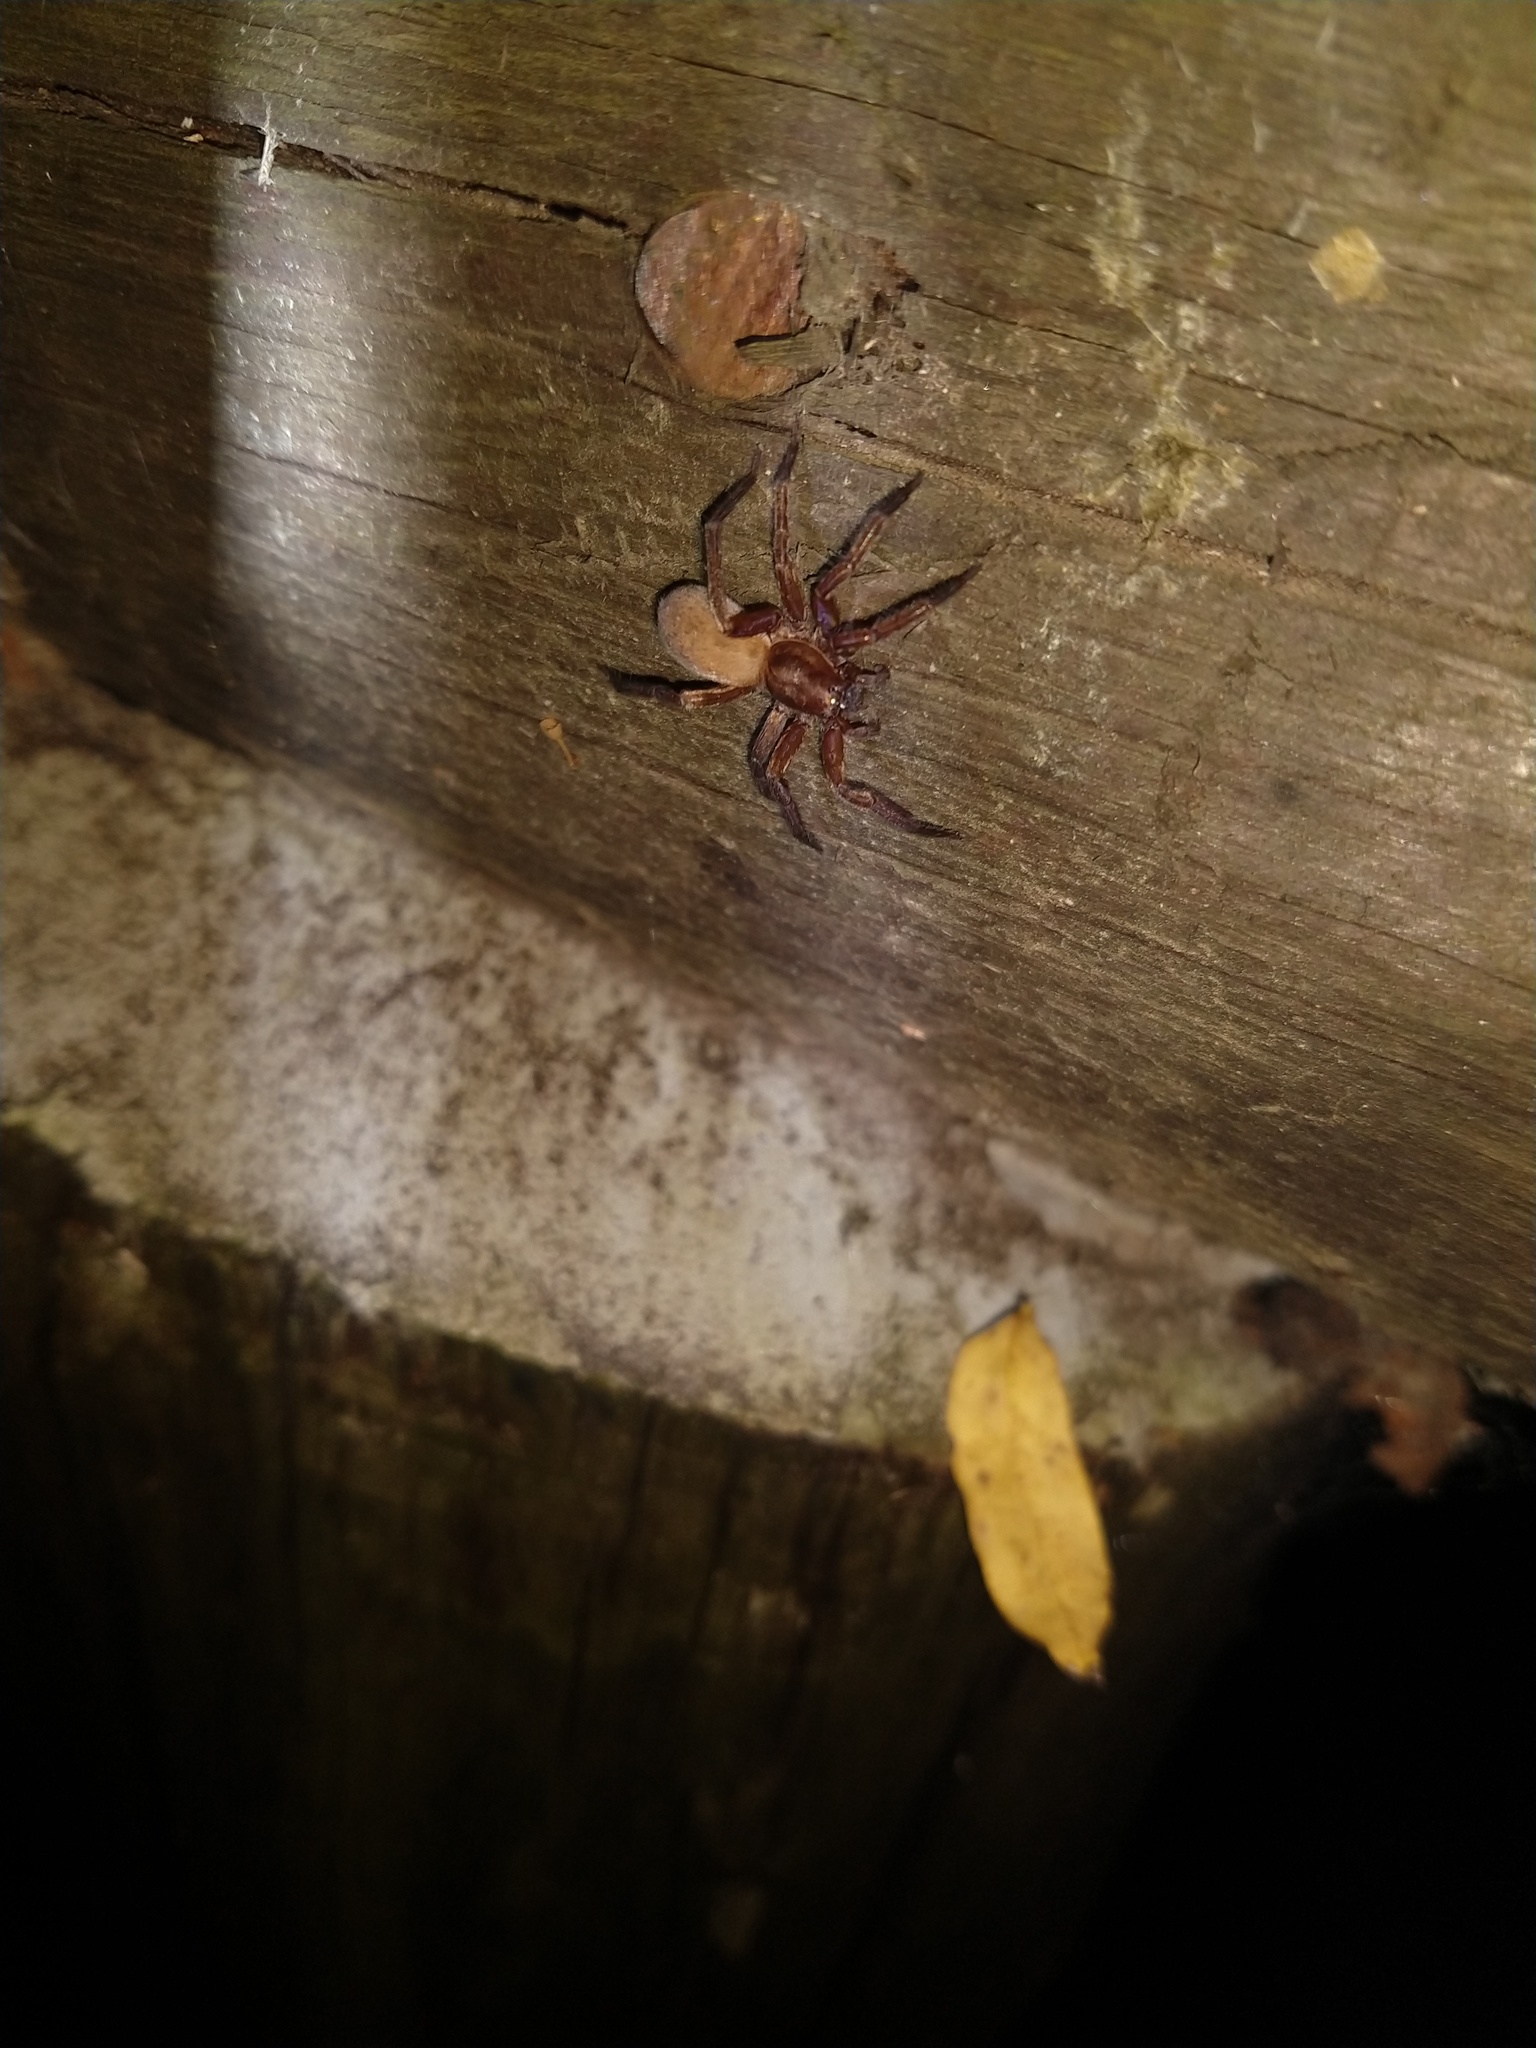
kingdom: Animalia
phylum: Arthropoda
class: Arachnida
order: Araneae
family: Ctenidae
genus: Asthenoctenus
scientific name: Asthenoctenus borellii
